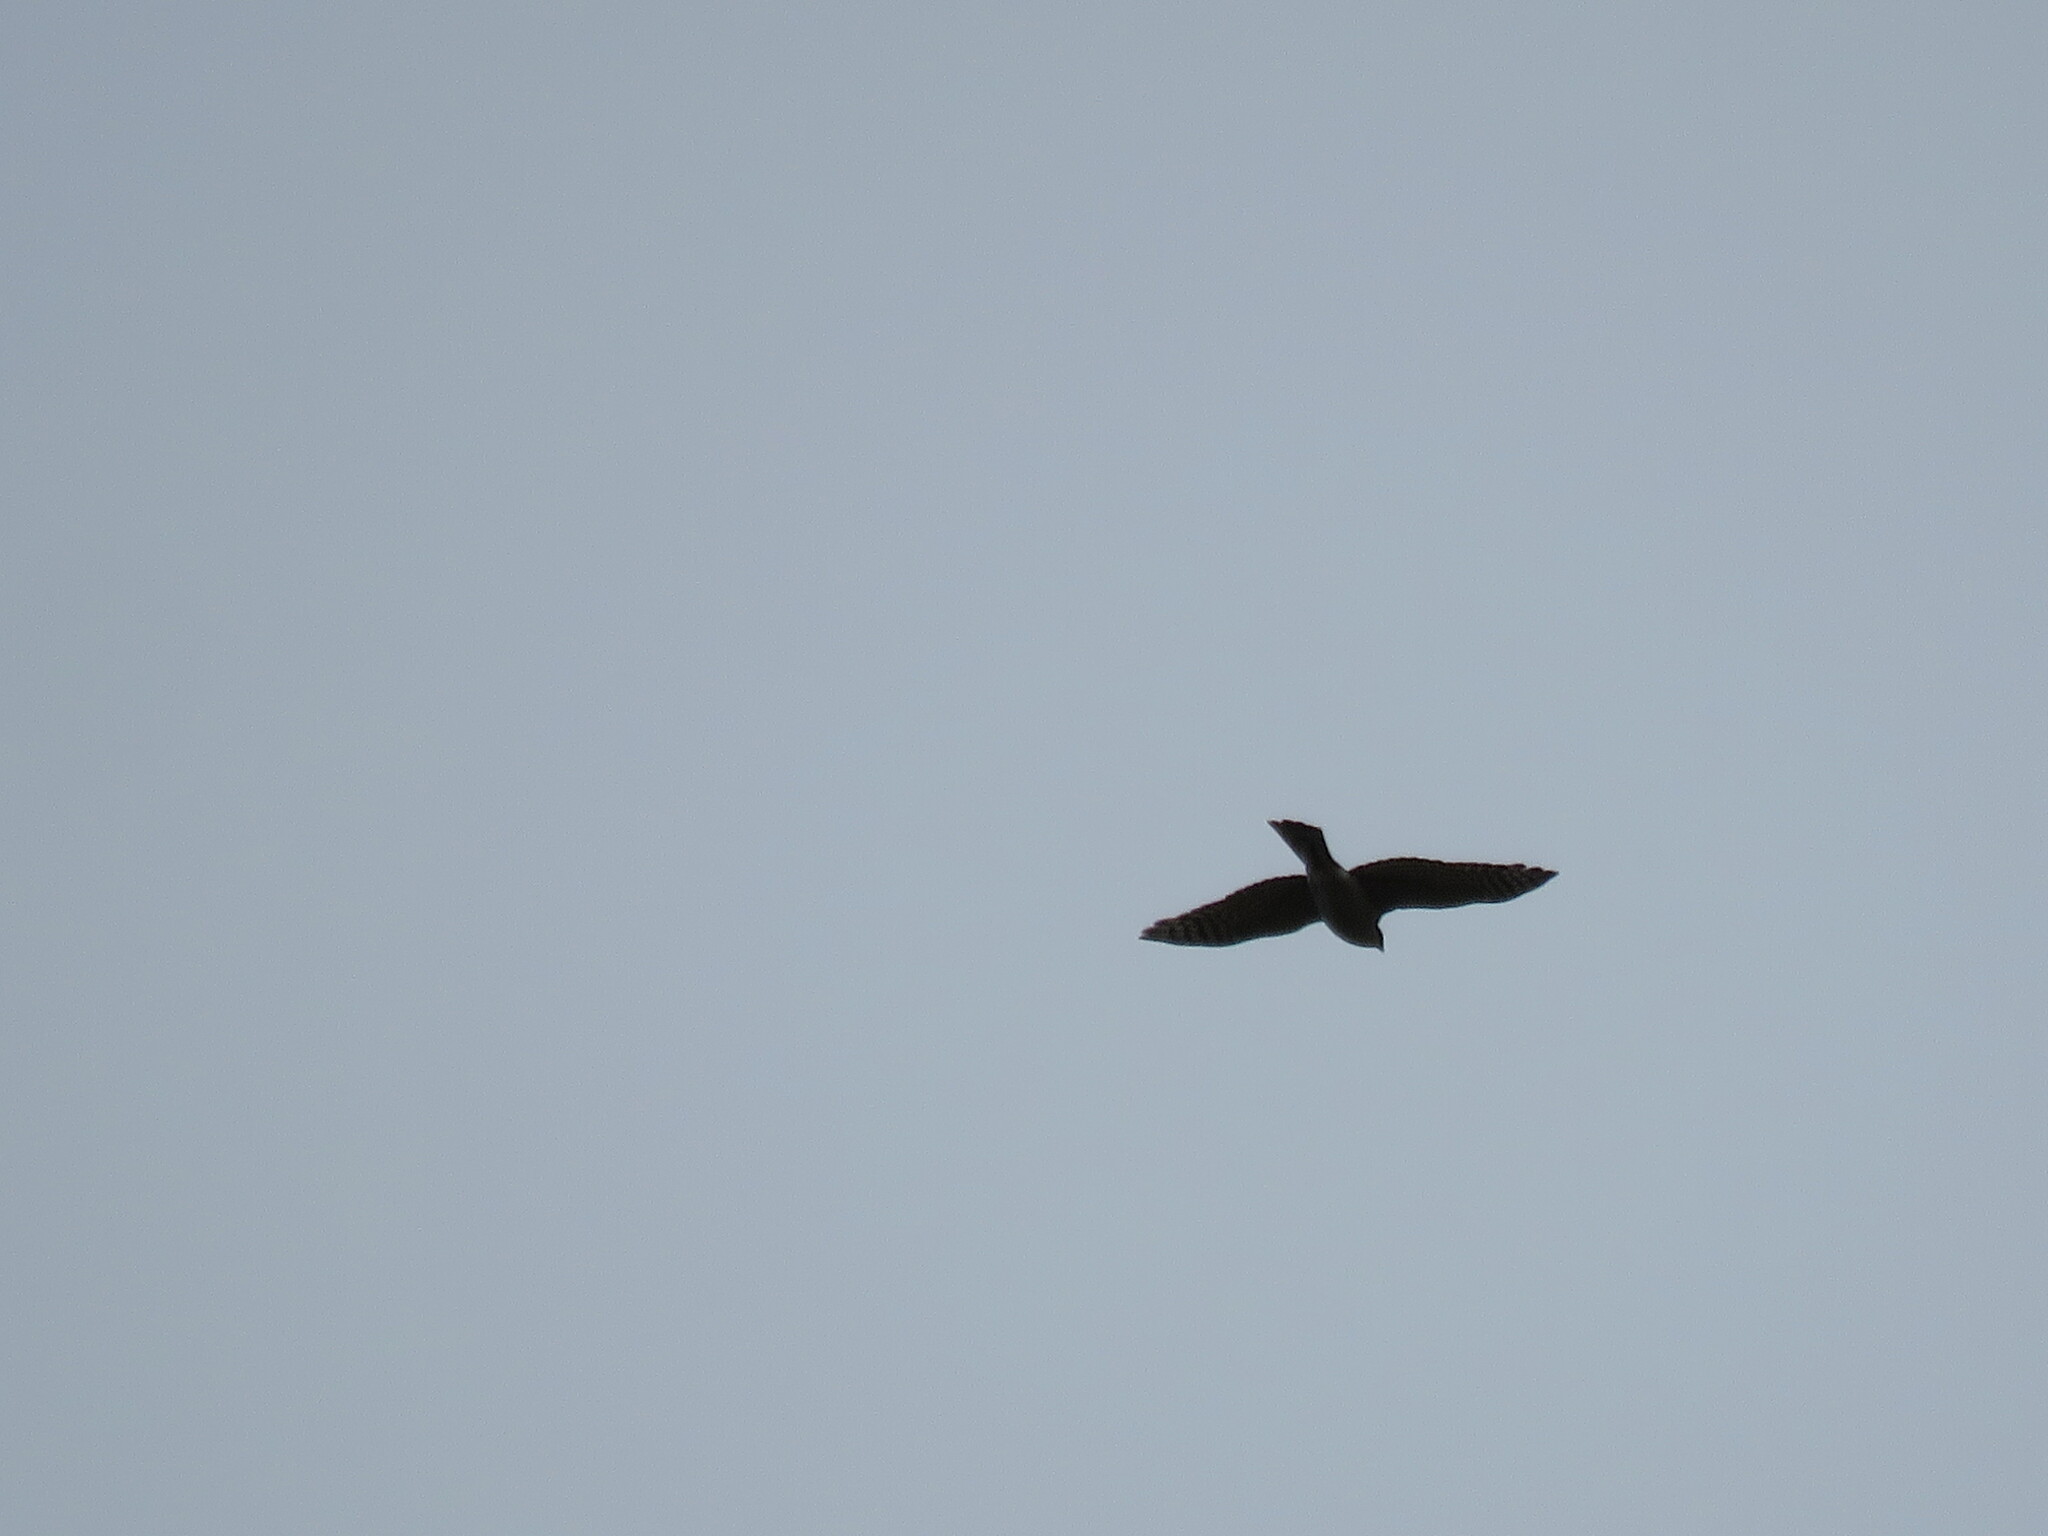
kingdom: Animalia
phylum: Chordata
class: Aves
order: Accipitriformes
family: Accipitridae
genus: Accipiter
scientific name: Accipiter nisus
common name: Eurasian sparrowhawk
